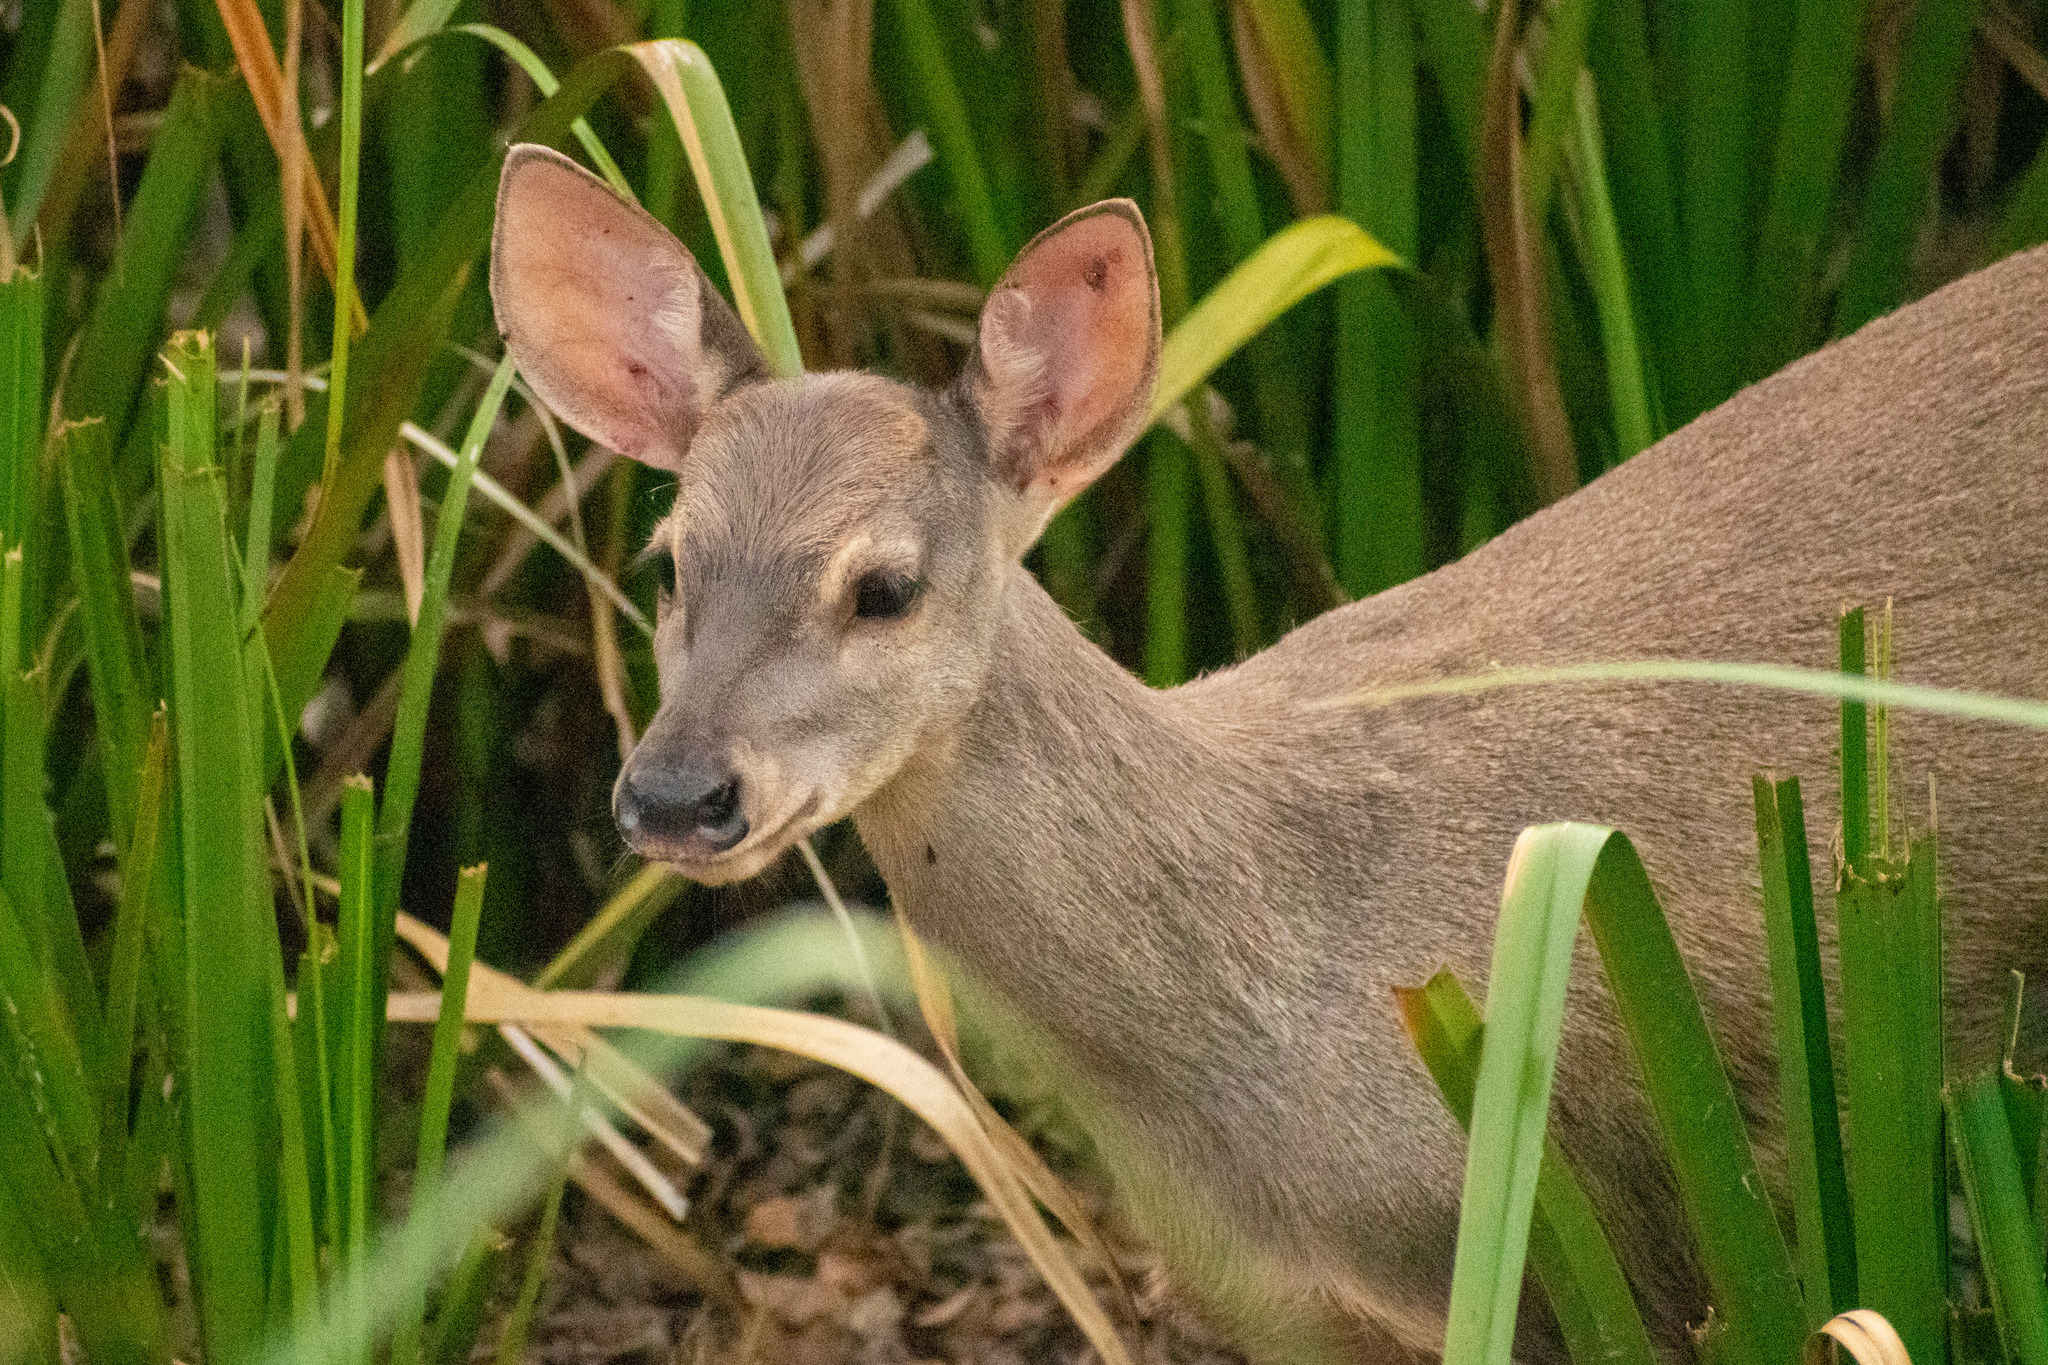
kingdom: Animalia
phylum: Chordata
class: Mammalia
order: Artiodactyla
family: Cervidae
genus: Mazama
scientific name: Mazama gouazoubira
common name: Gray brocket
